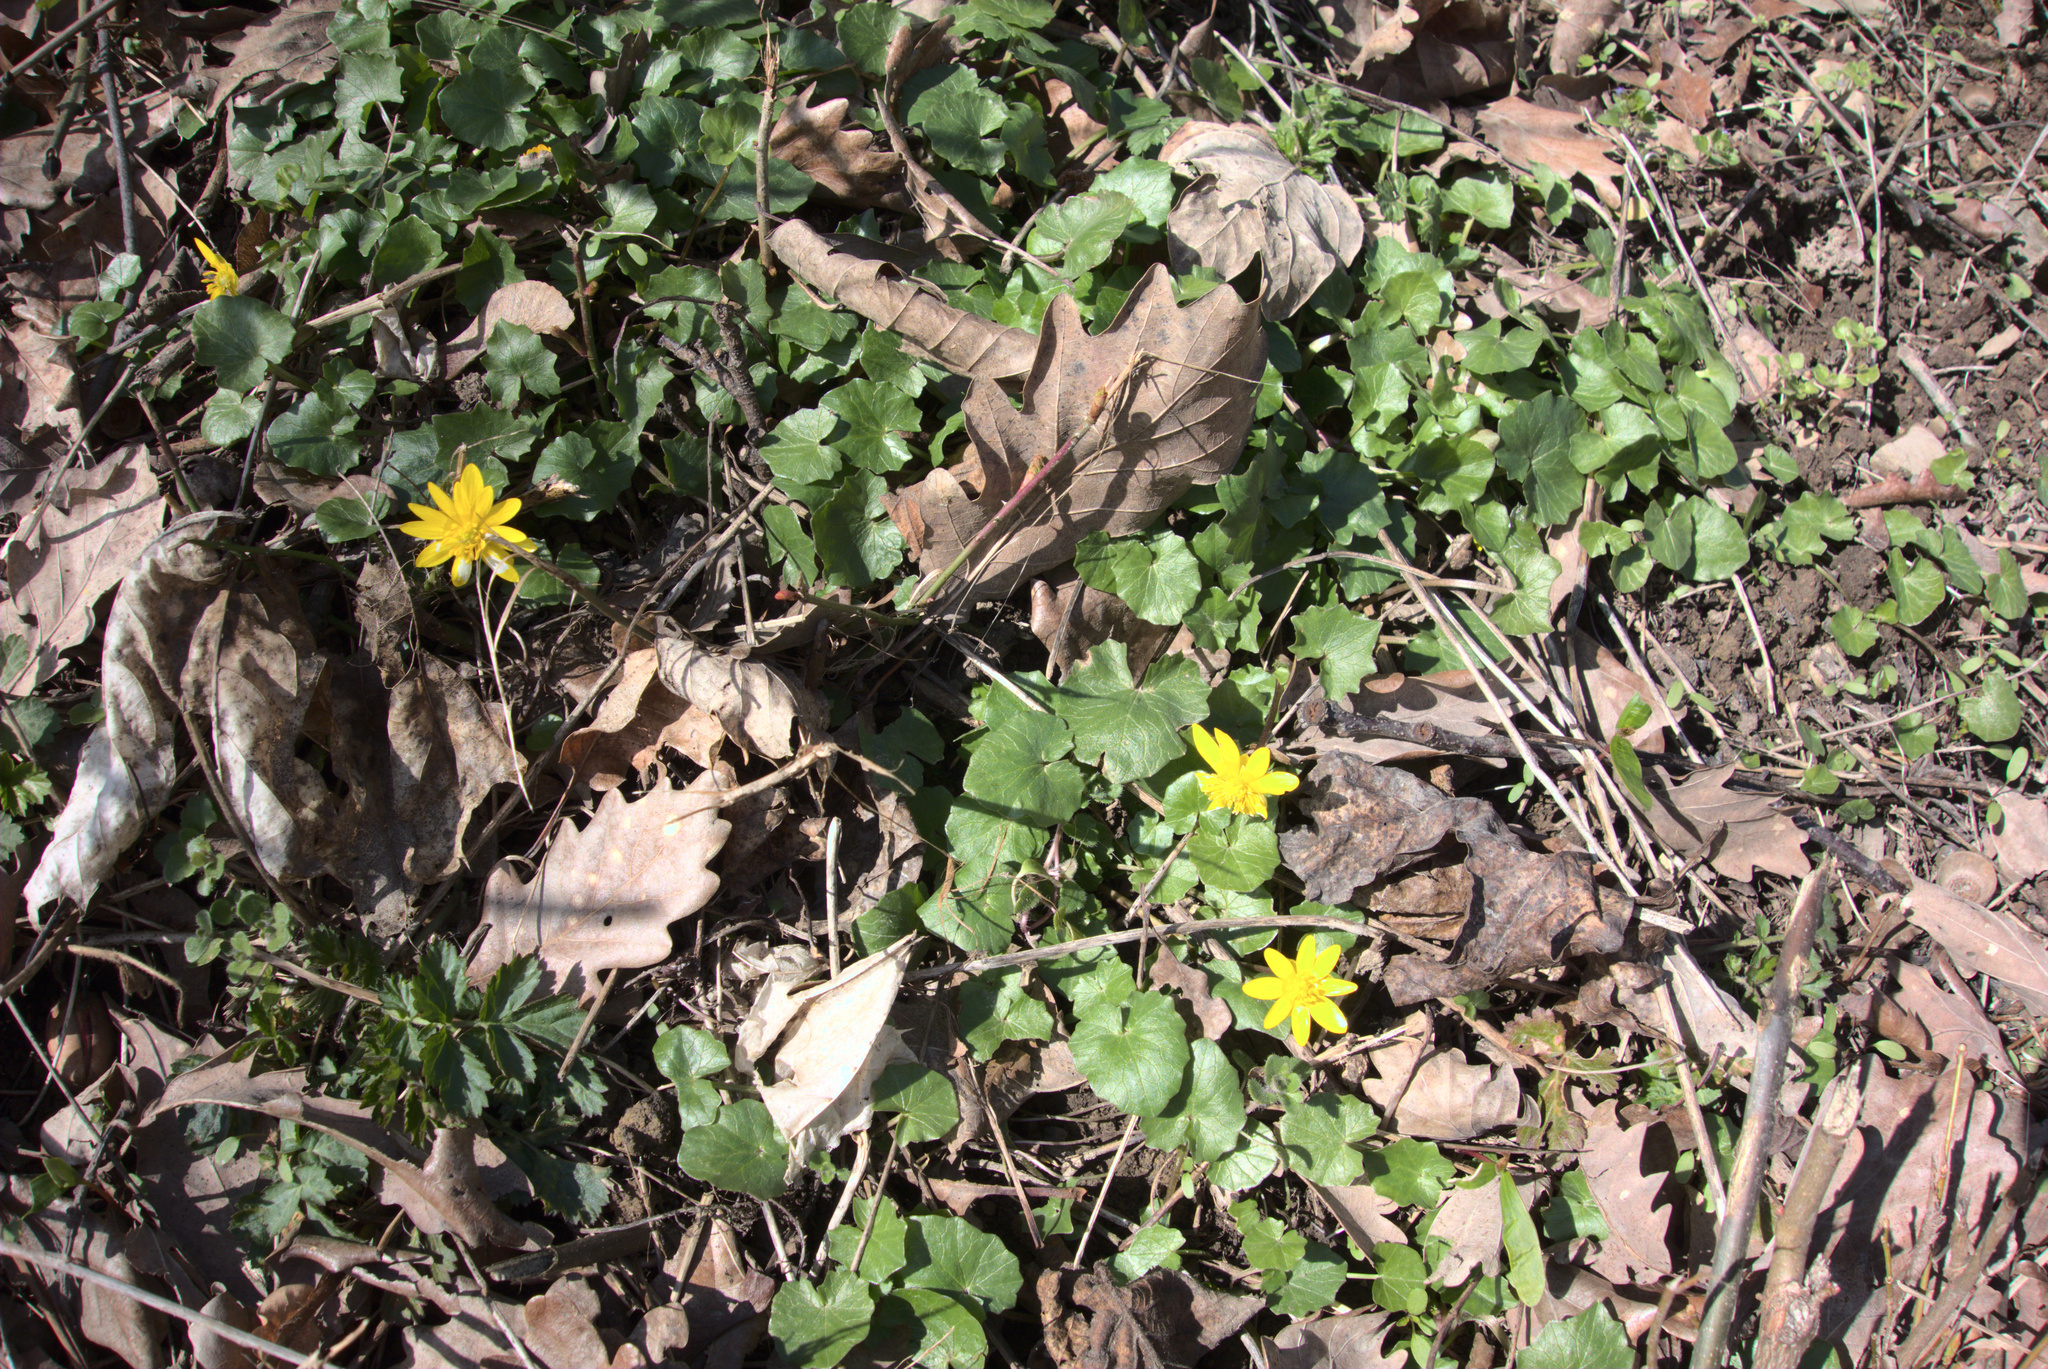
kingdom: Plantae
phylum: Tracheophyta
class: Magnoliopsida
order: Ranunculales
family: Ranunculaceae
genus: Ficaria
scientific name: Ficaria verna
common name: Lesser celandine
